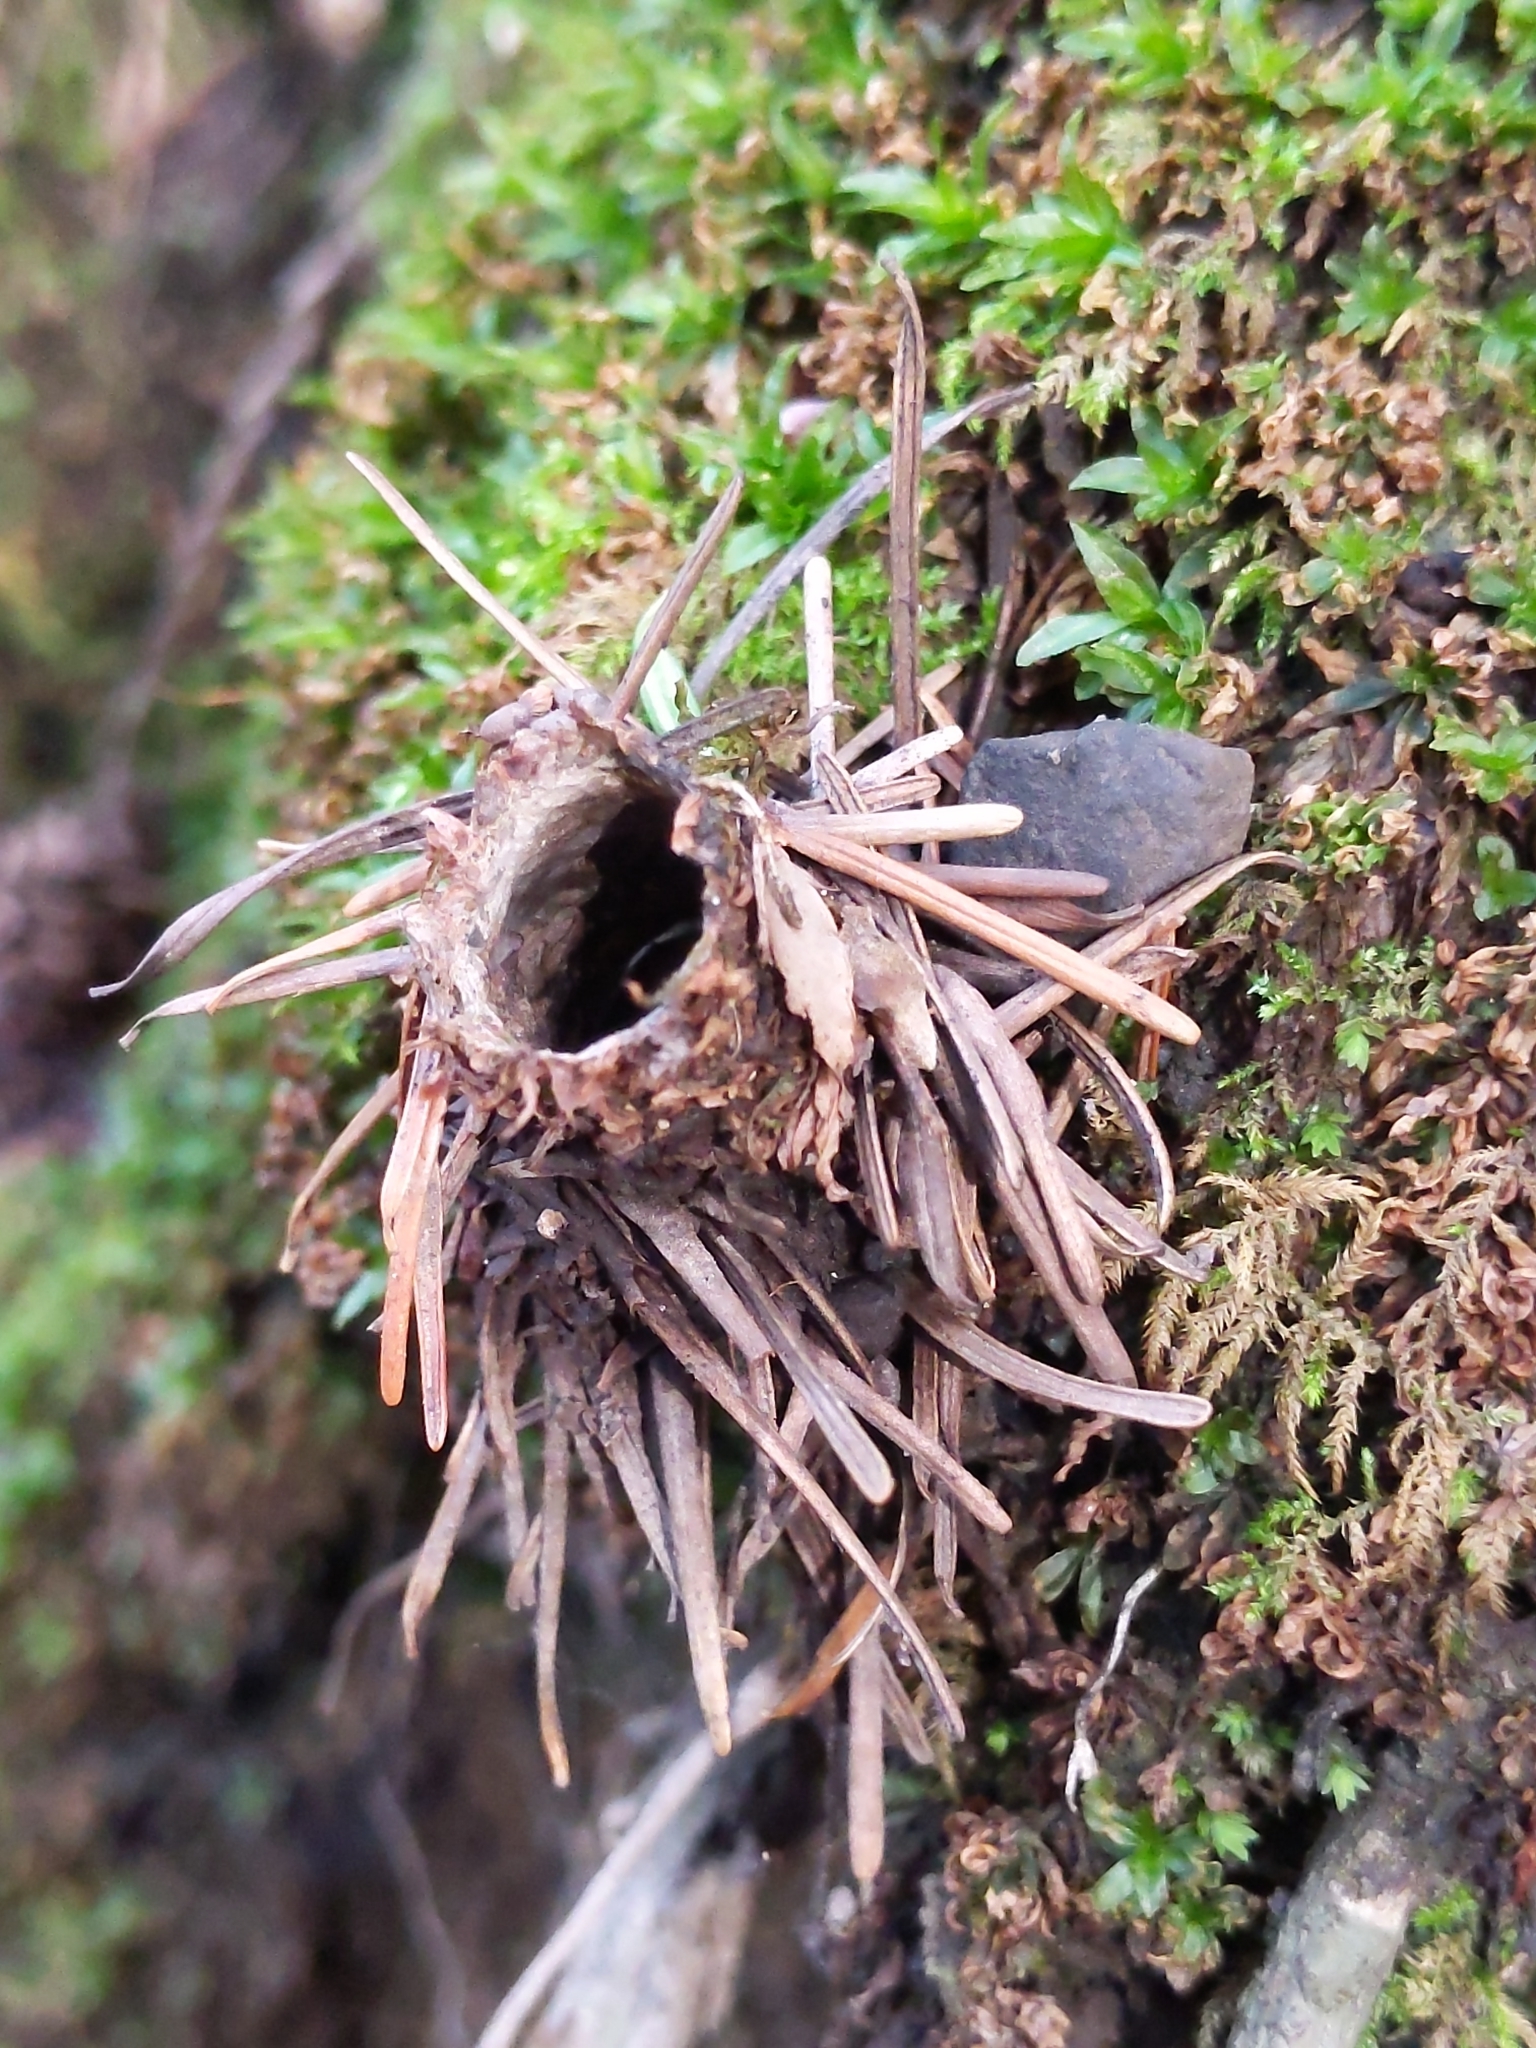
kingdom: Animalia
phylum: Arthropoda
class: Arachnida
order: Araneae
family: Antrodiaetidae
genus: Atypoides
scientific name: Atypoides riversi
